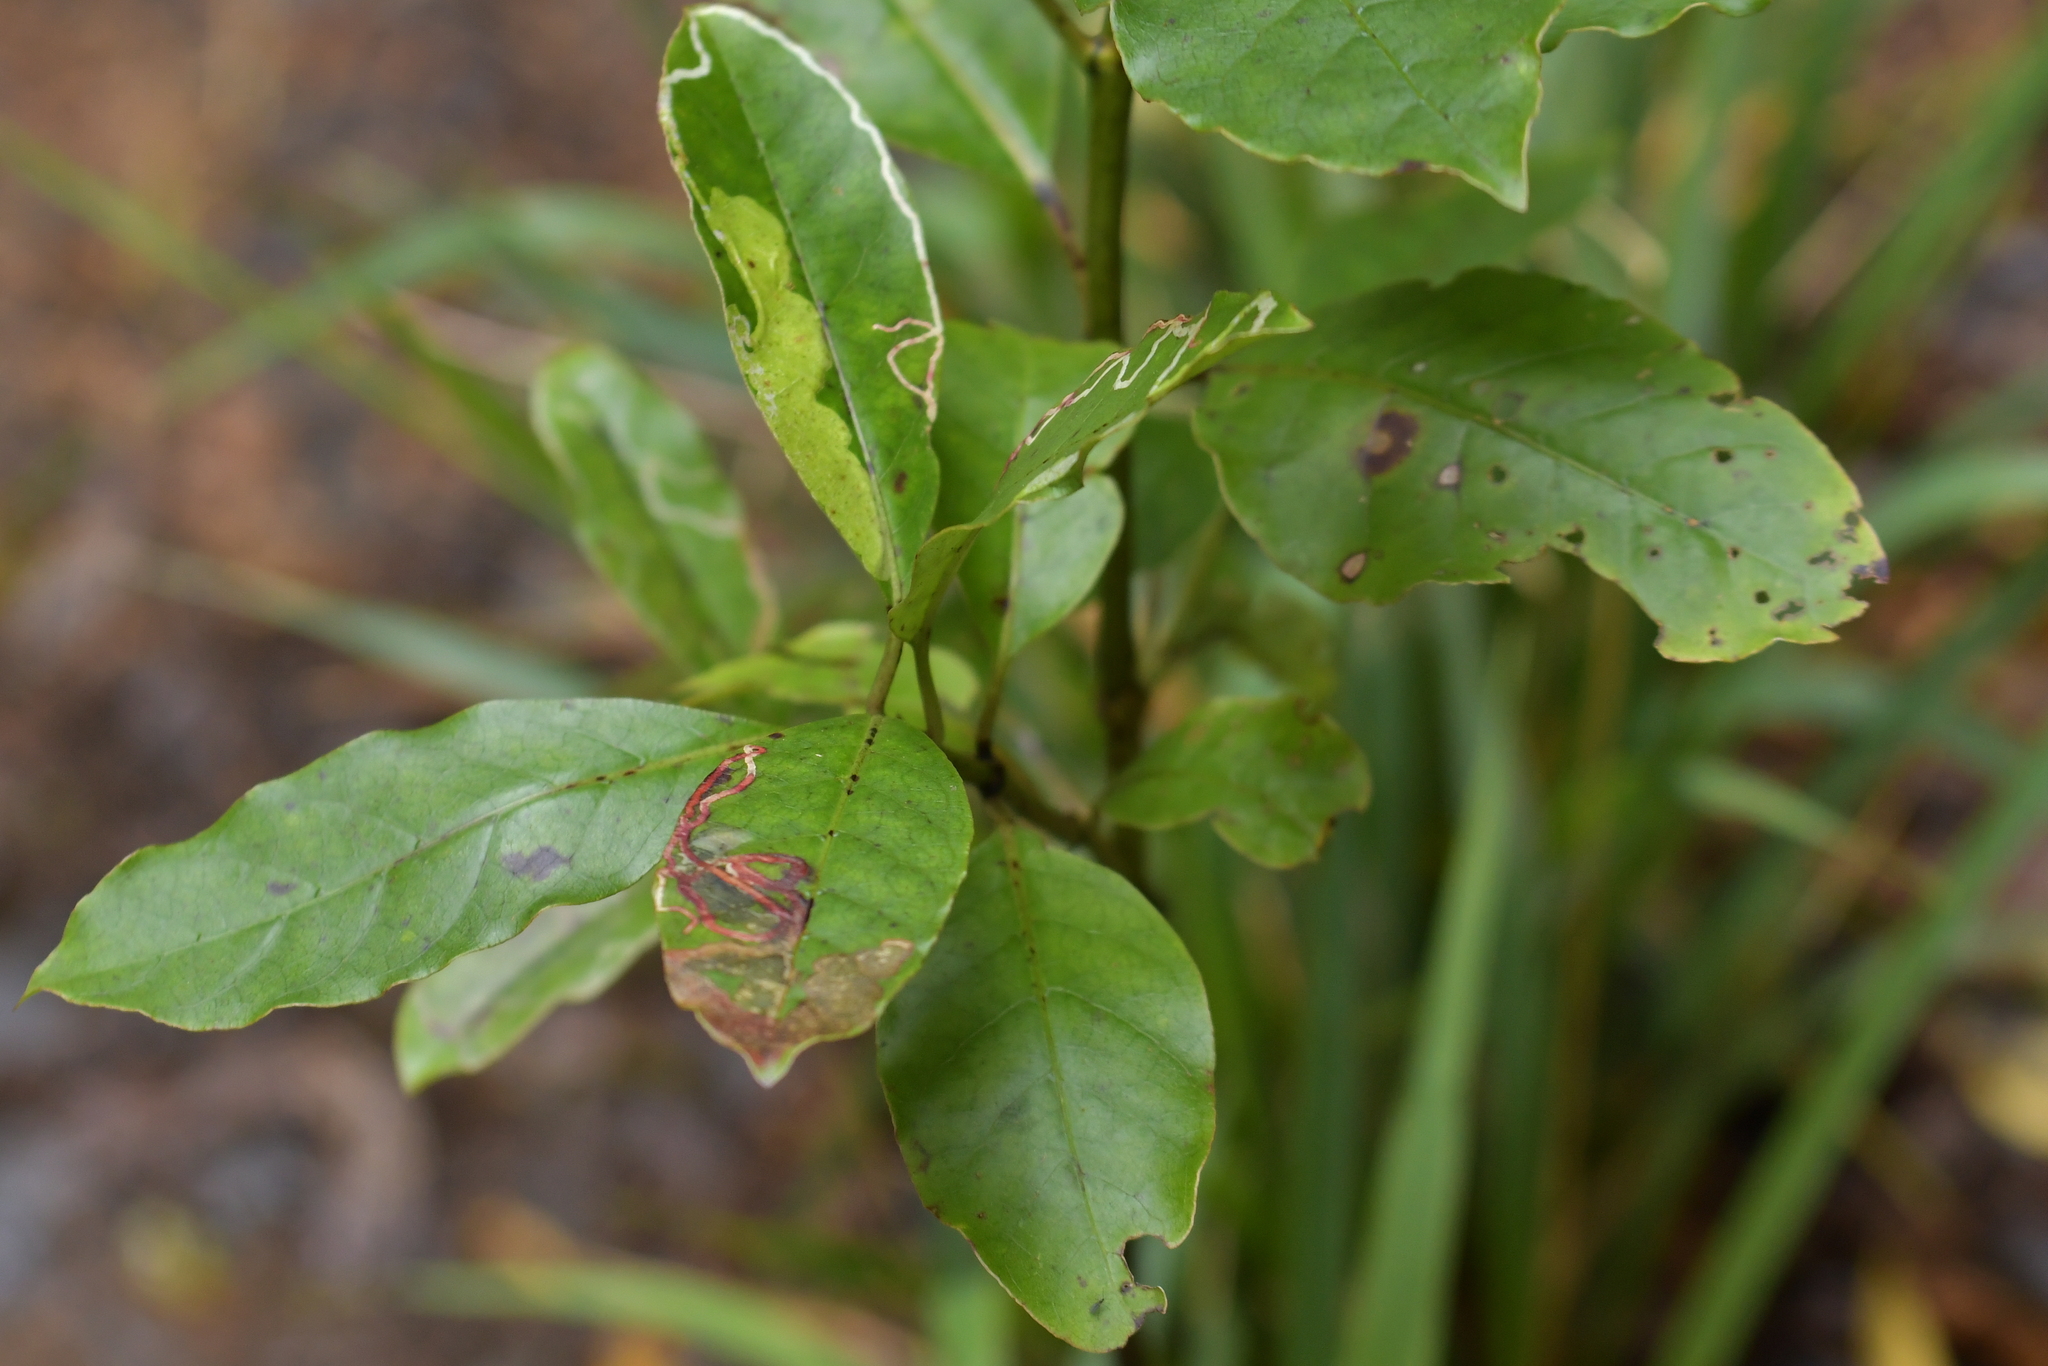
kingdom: Animalia
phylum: Arthropoda
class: Insecta
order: Lepidoptera
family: Gracillariidae
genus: Corythoxestis
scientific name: Corythoxestis zorionella
